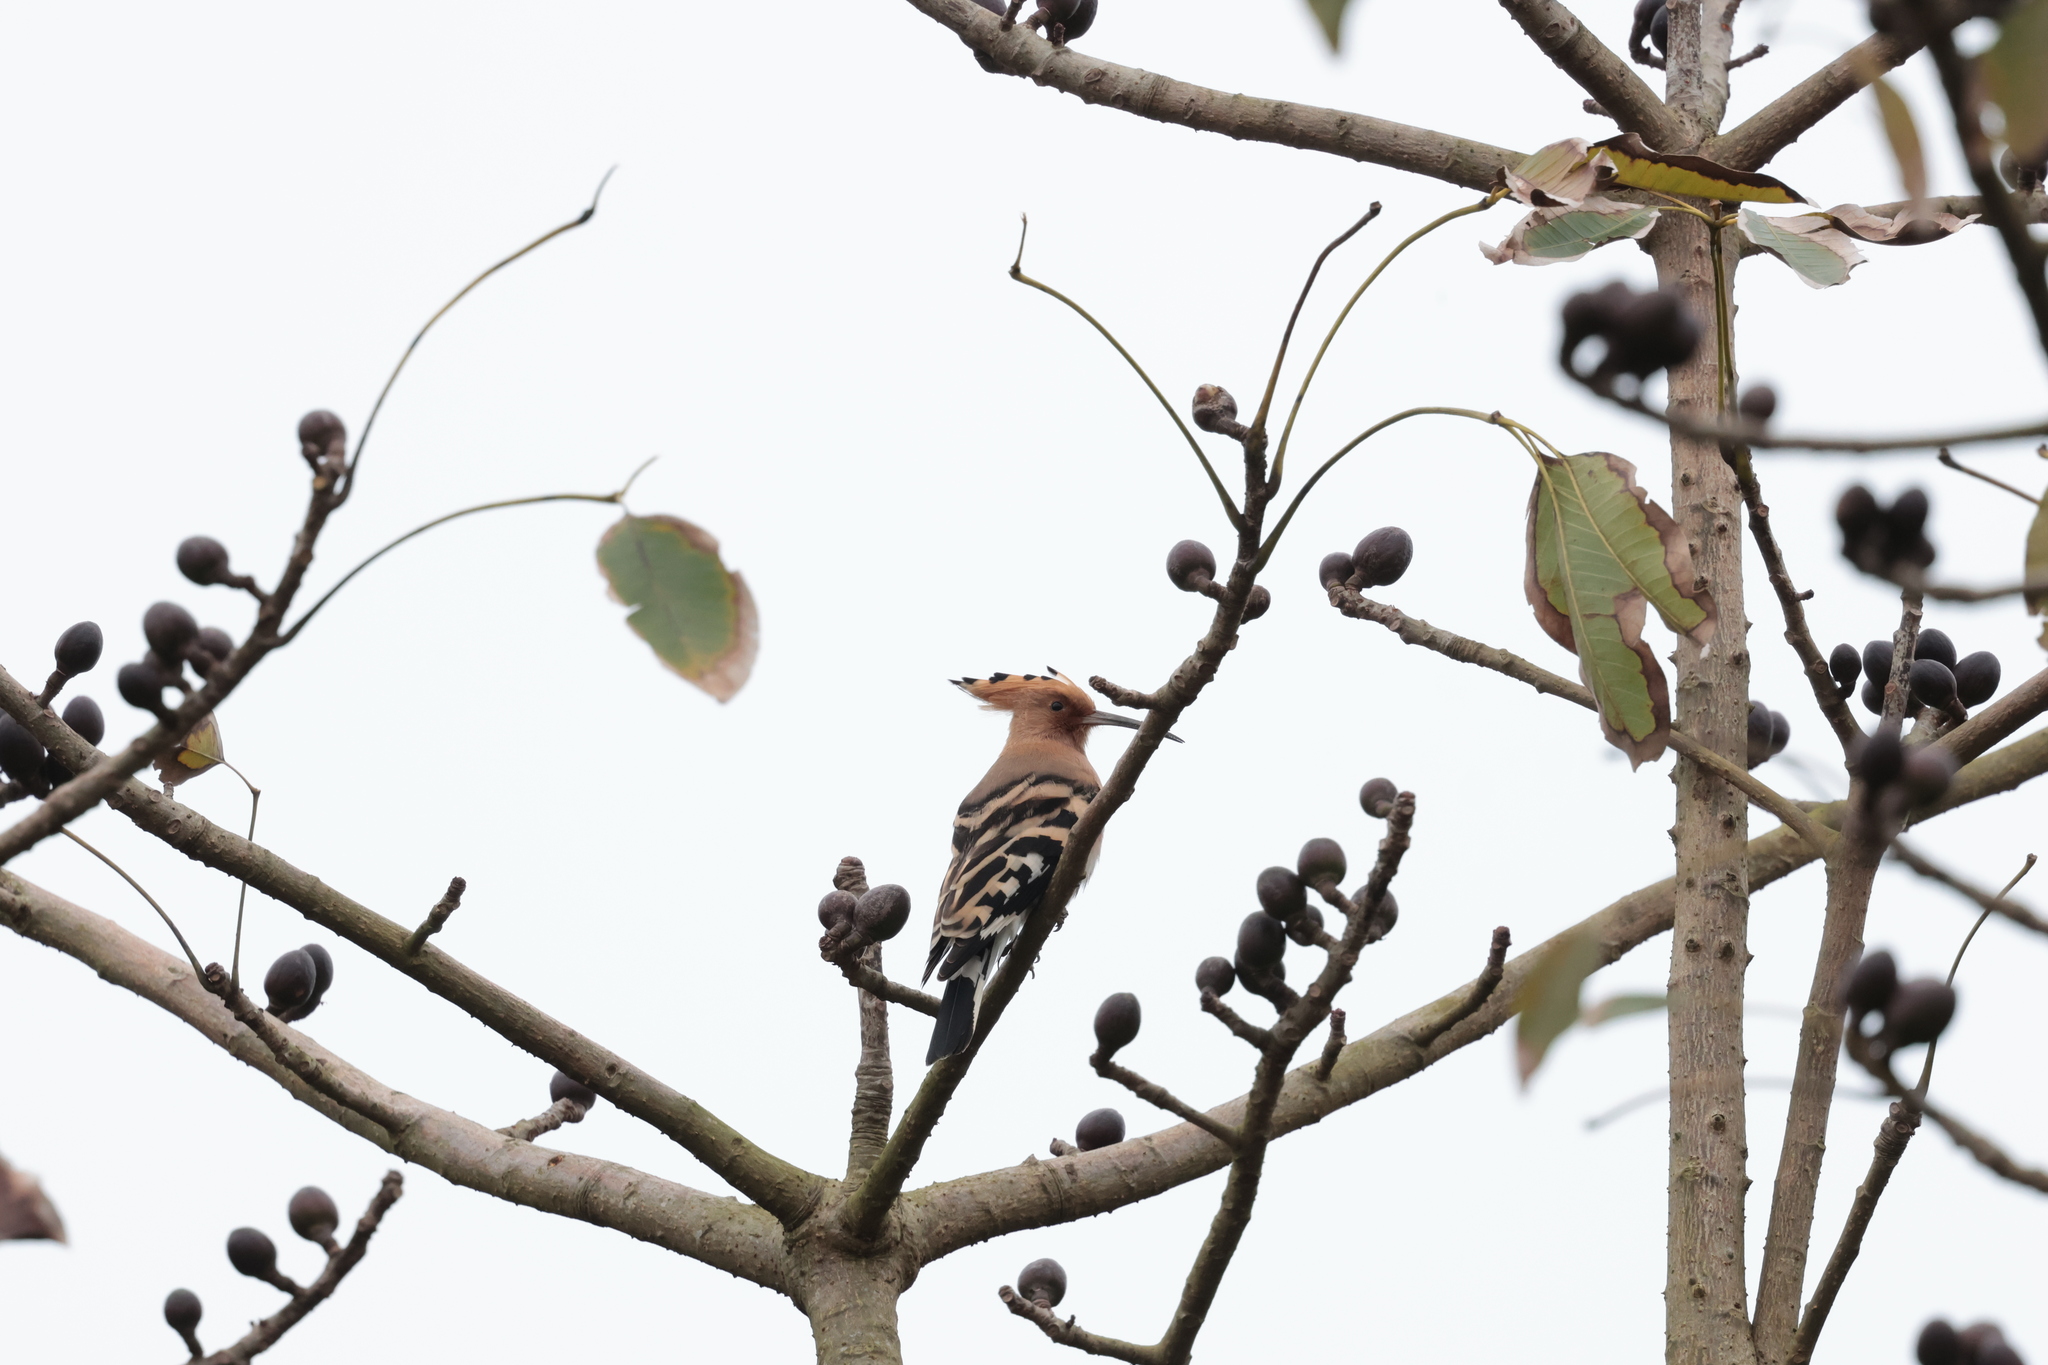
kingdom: Animalia
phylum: Chordata
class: Aves
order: Bucerotiformes
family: Upupidae
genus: Upupa
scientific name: Upupa epops
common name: Eurasian hoopoe
